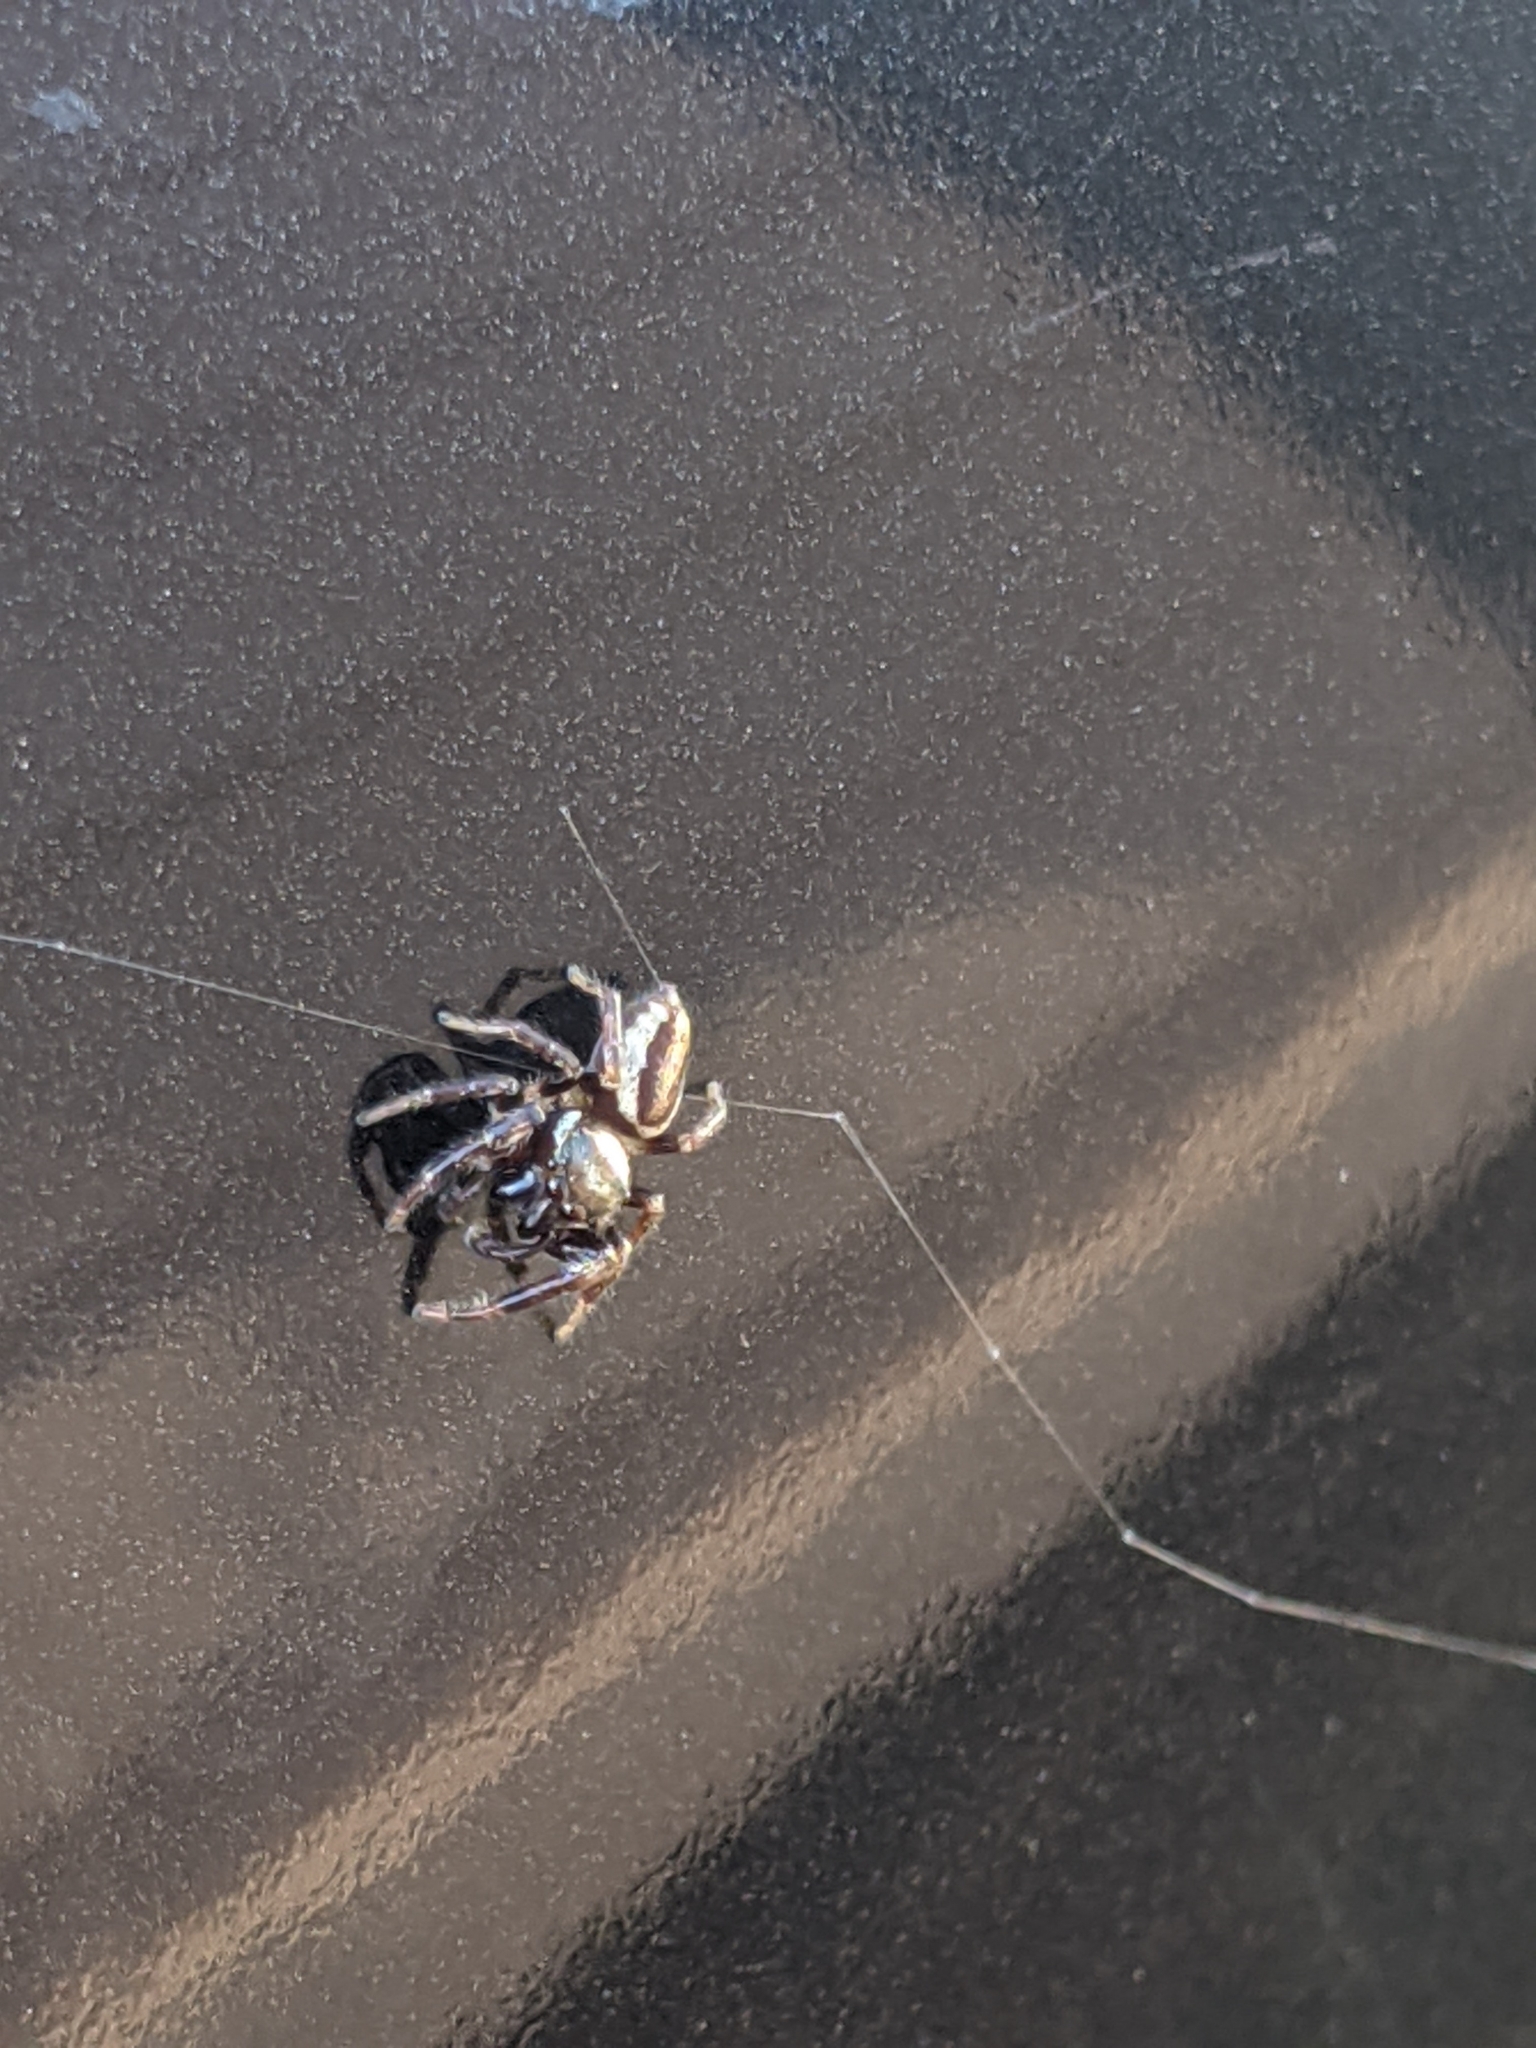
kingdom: Animalia
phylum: Arthropoda
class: Arachnida
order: Araneae
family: Salticidae
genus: Eris
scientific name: Eris militaris
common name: Bronze jumper
